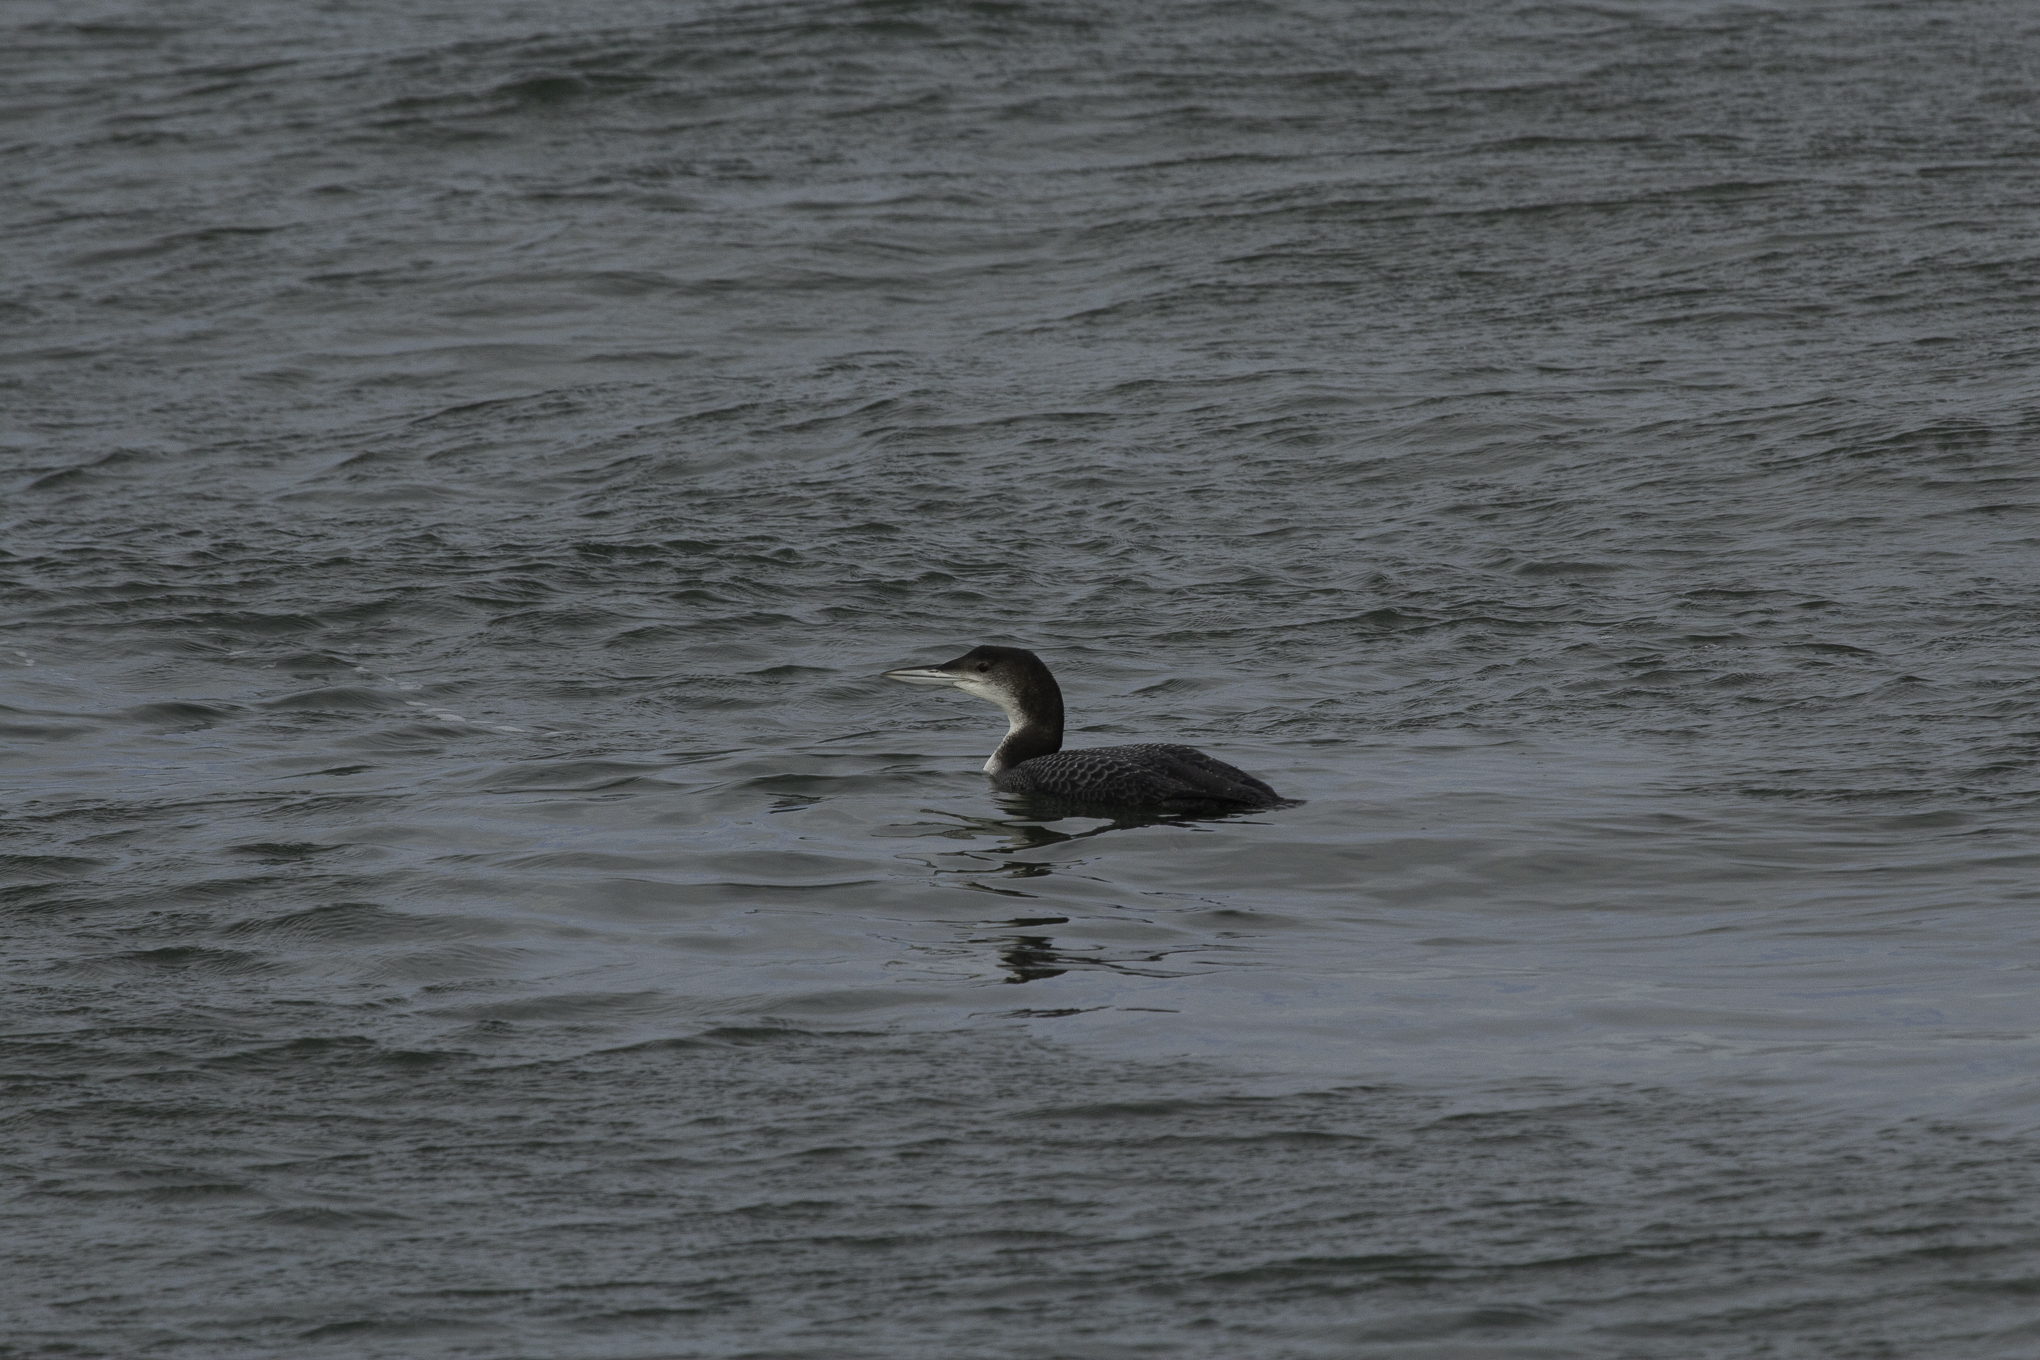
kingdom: Animalia
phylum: Chordata
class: Aves
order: Gaviiformes
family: Gaviidae
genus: Gavia
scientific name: Gavia immer
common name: Common loon
